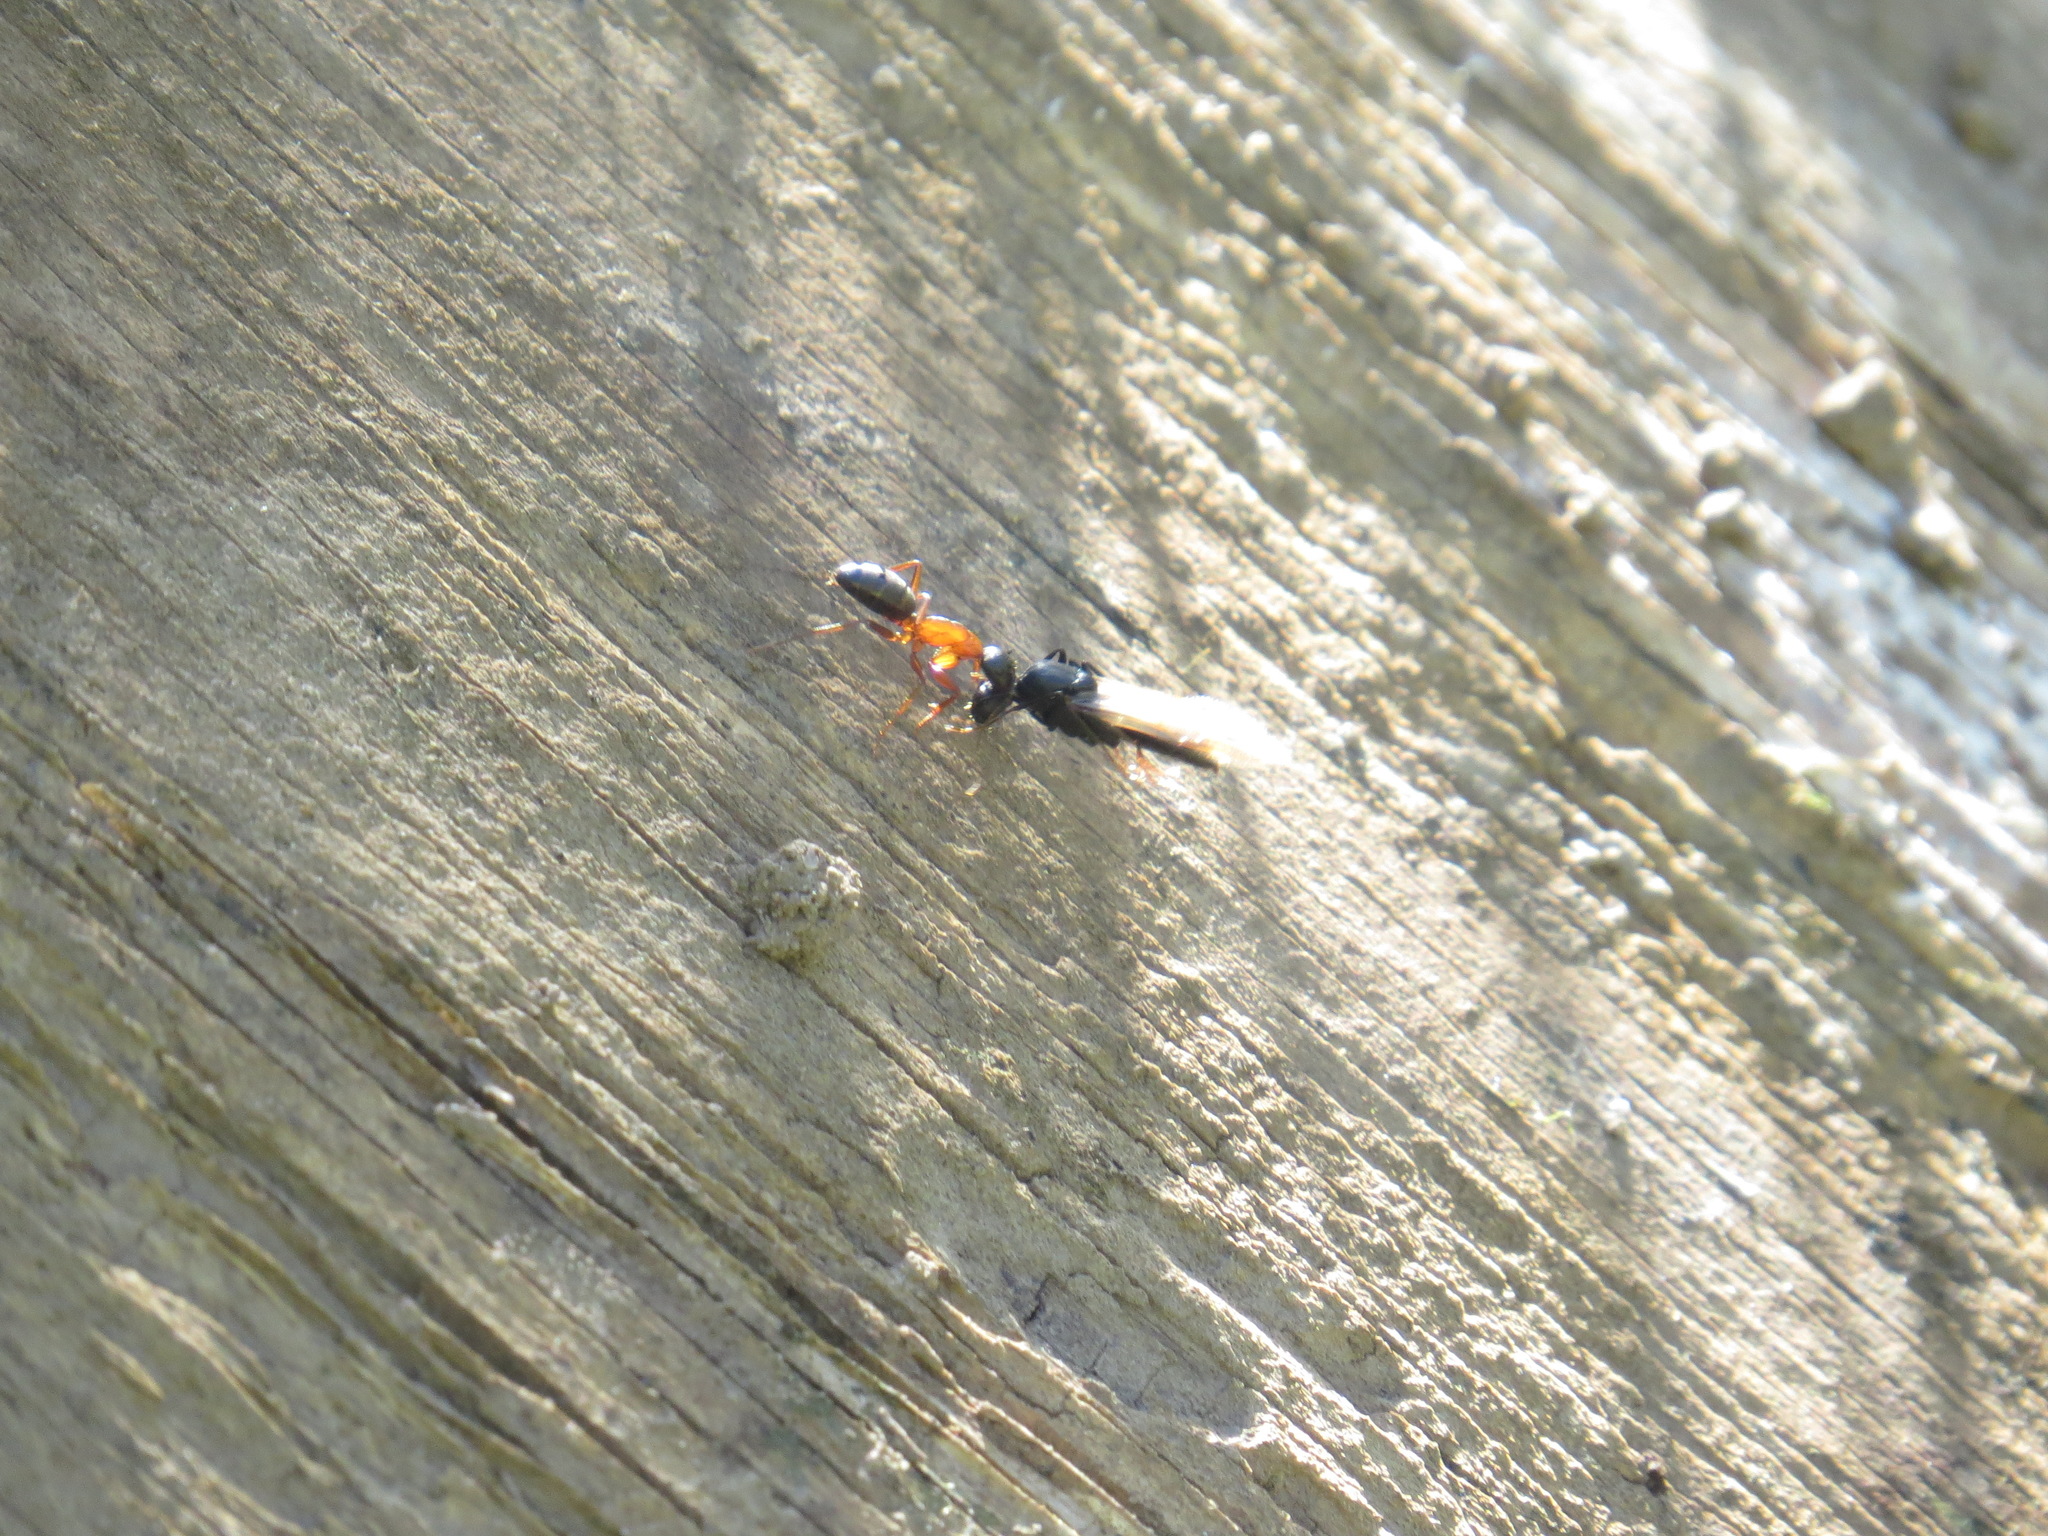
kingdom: Animalia
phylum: Arthropoda
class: Insecta
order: Hymenoptera
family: Formicidae
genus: Camponotus
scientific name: Camponotus vicinus
